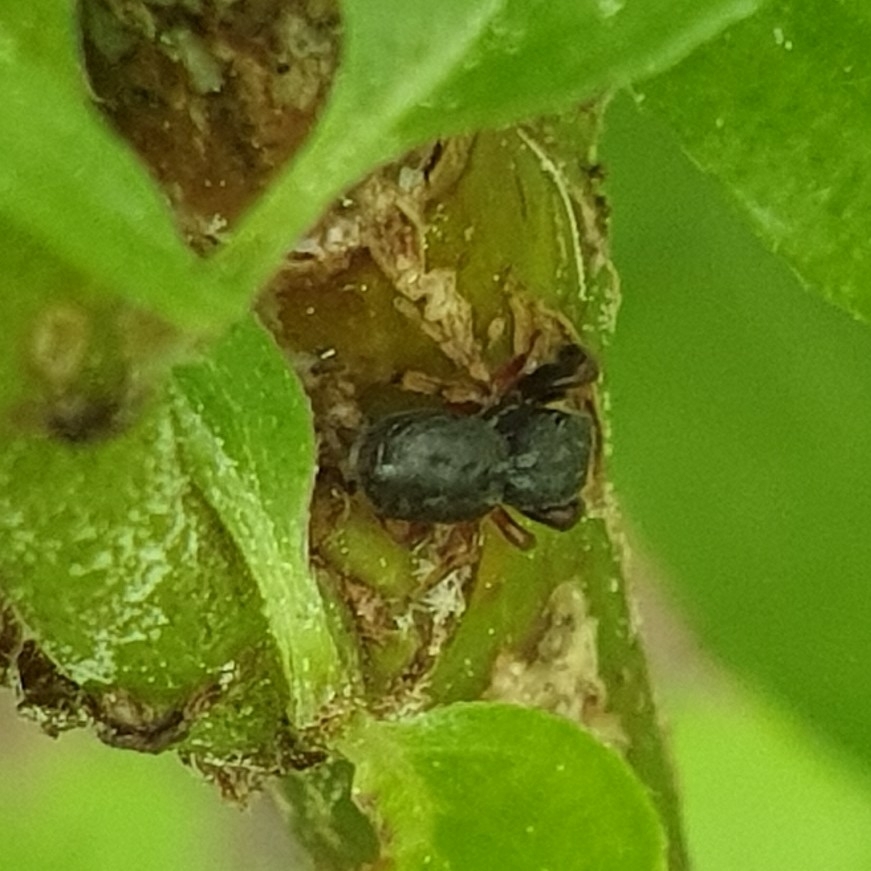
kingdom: Animalia
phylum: Arthropoda
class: Arachnida
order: Araneae
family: Salticidae
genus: Ballus
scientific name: Ballus chalybeius
